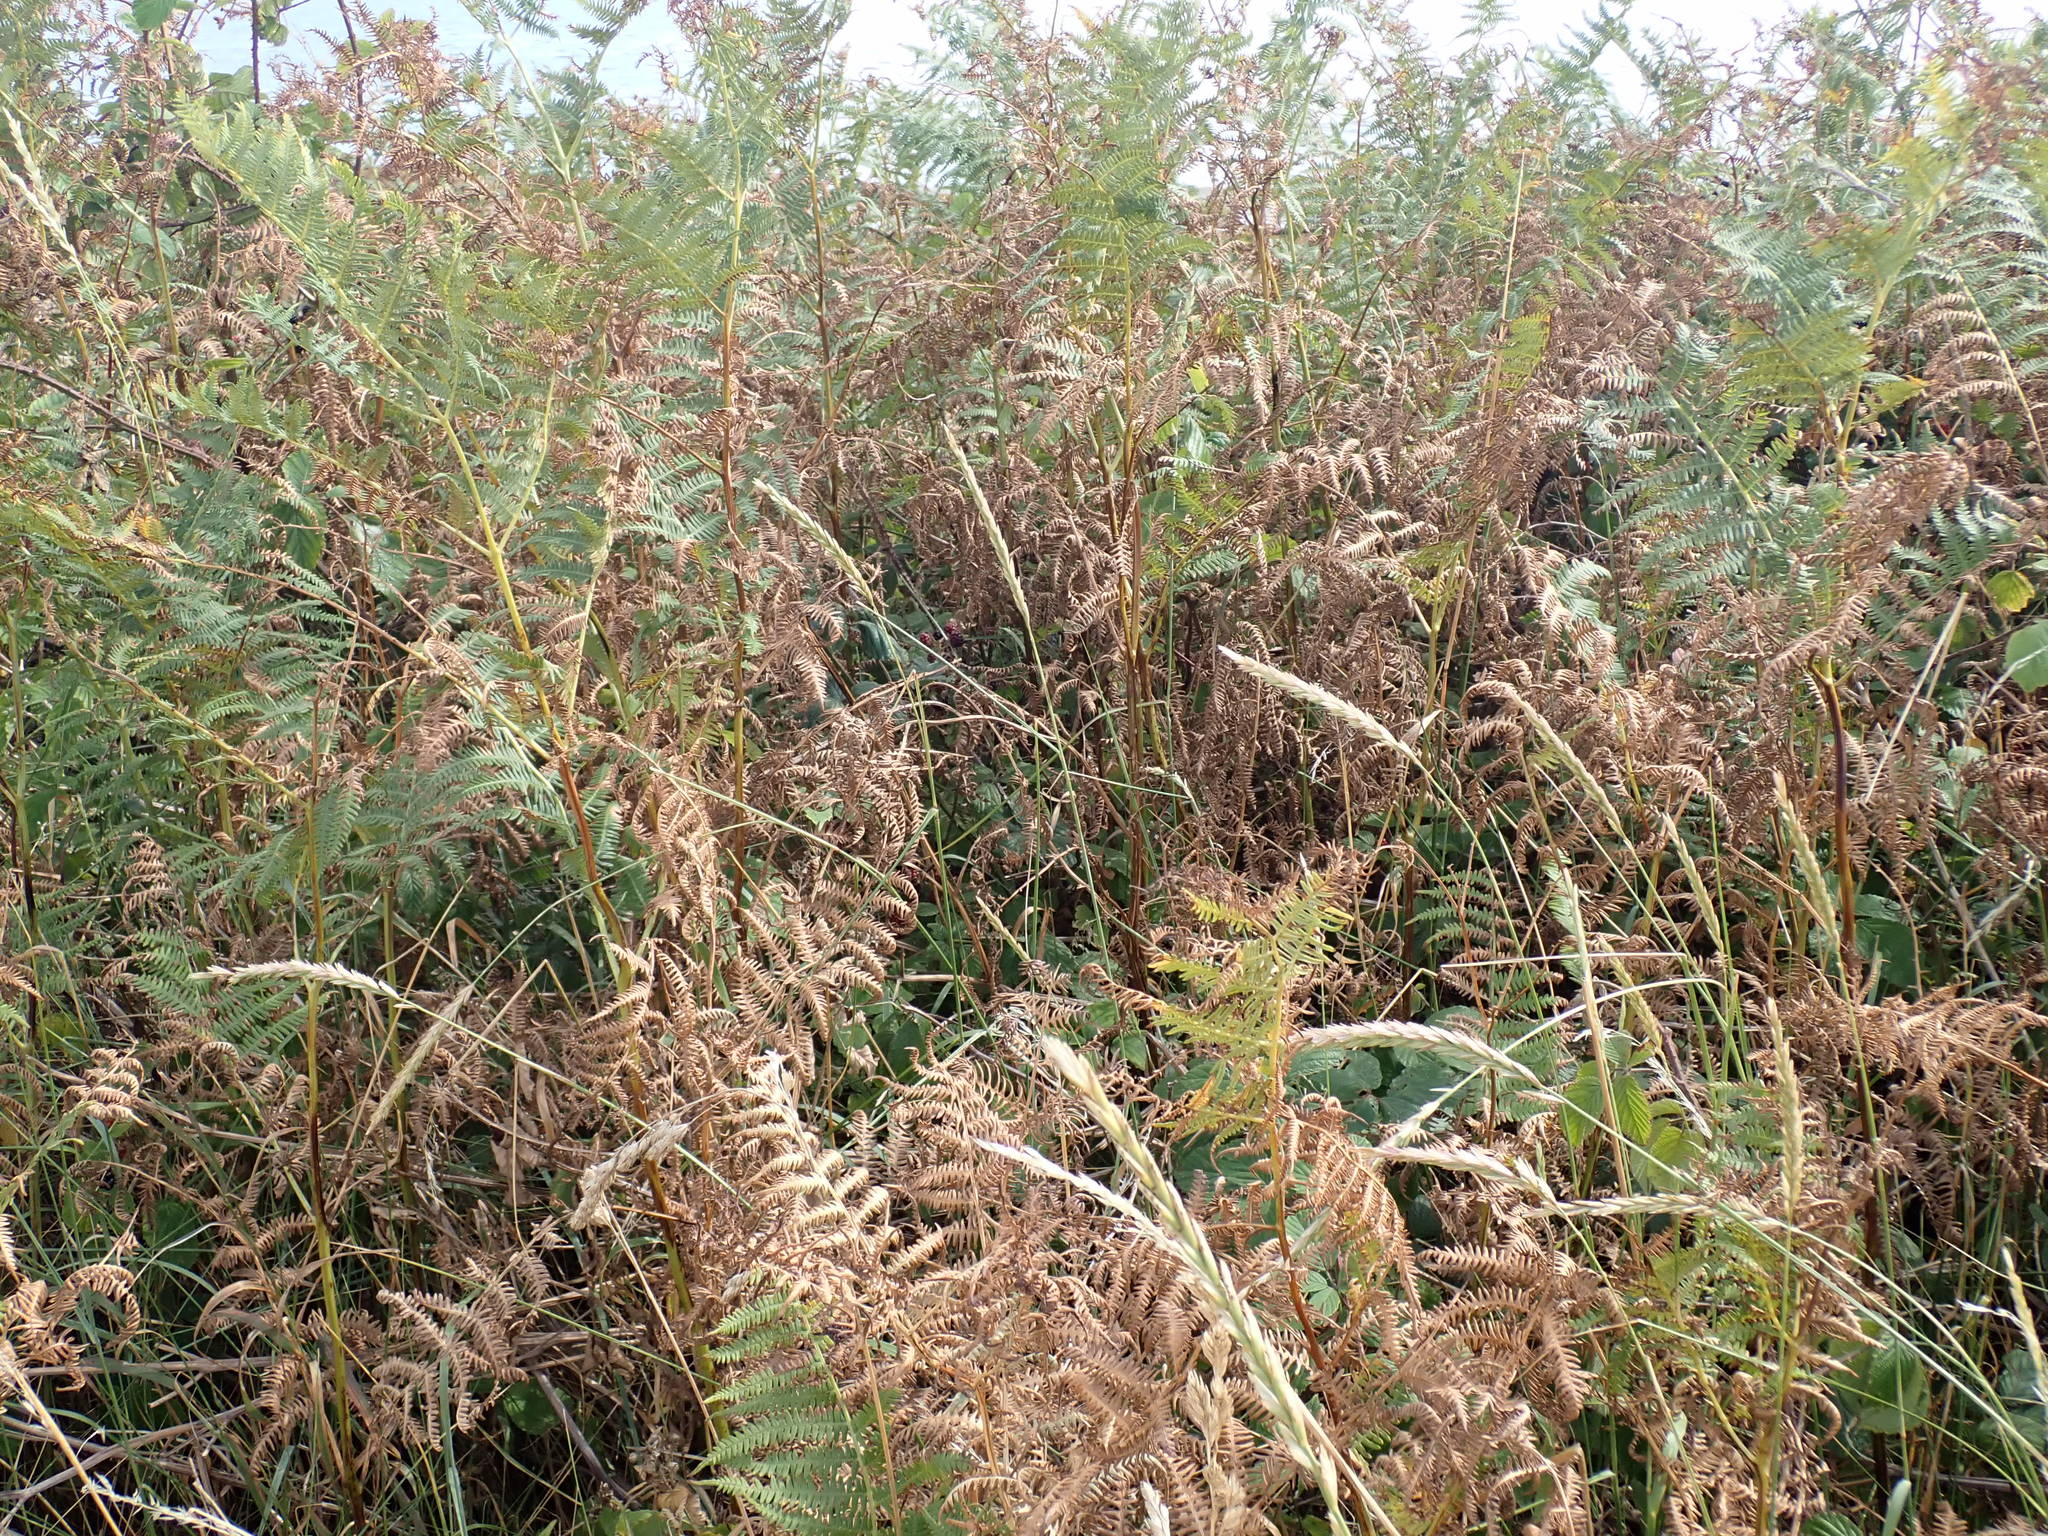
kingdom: Plantae
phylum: Tracheophyta
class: Polypodiopsida
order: Polypodiales
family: Dennstaedtiaceae
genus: Pteridium
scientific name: Pteridium aquilinum
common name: Bracken
